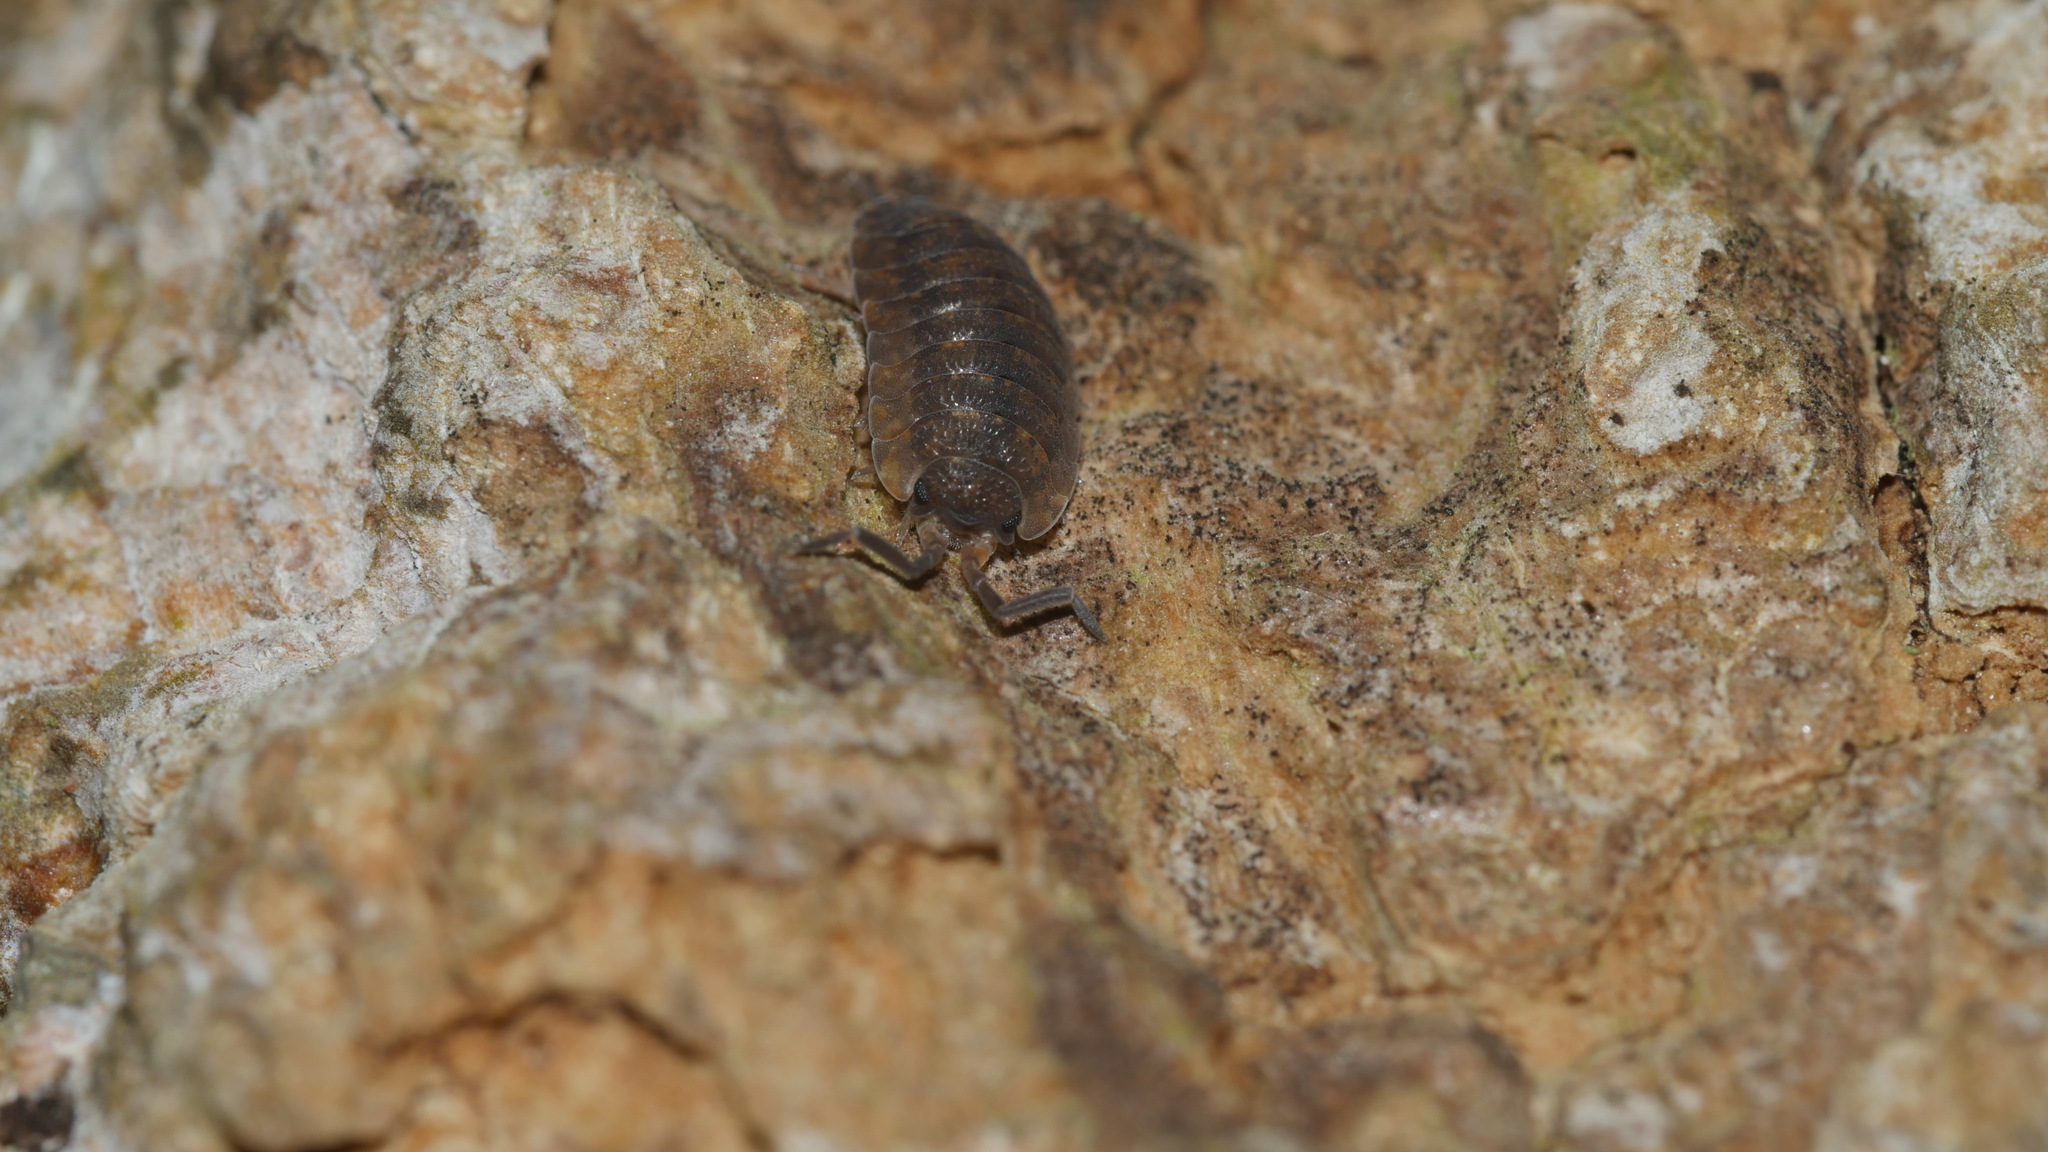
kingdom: Animalia
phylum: Arthropoda
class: Malacostraca
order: Isopoda
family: Porcellionidae
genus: Porcellio
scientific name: Porcellio scaber
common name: Common rough woodlouse
